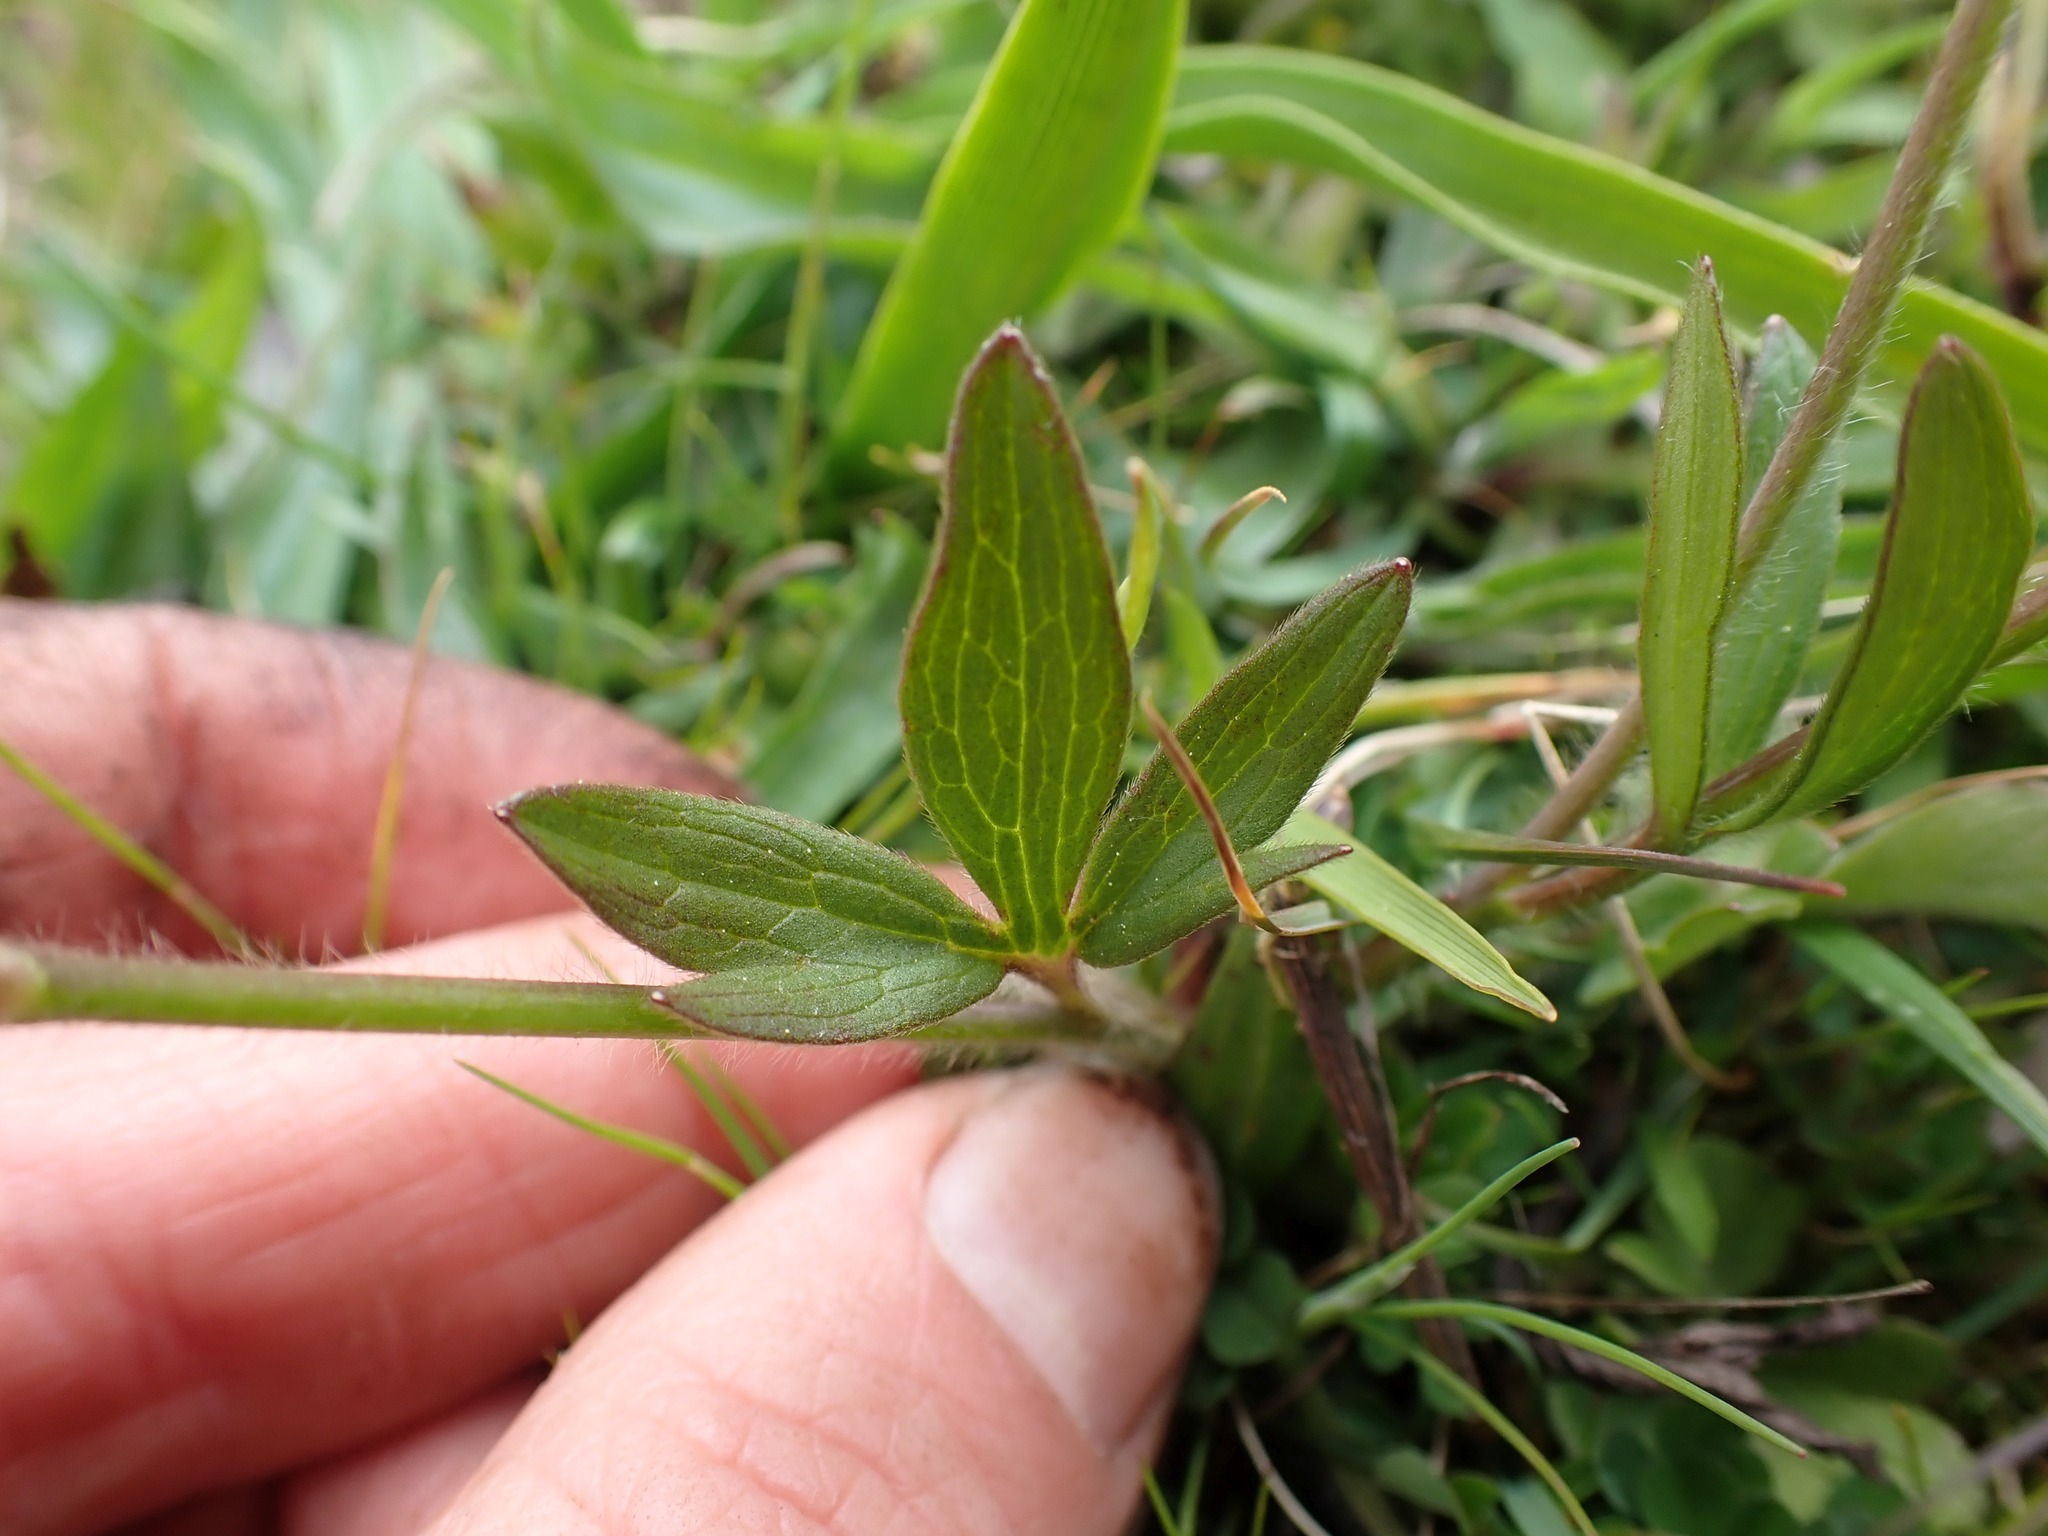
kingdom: Plantae
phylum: Tracheophyta
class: Magnoliopsida
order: Ranunculales
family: Ranunculaceae
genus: Ranunculus
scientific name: Ranunculus occidentalis
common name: Western buttercup
